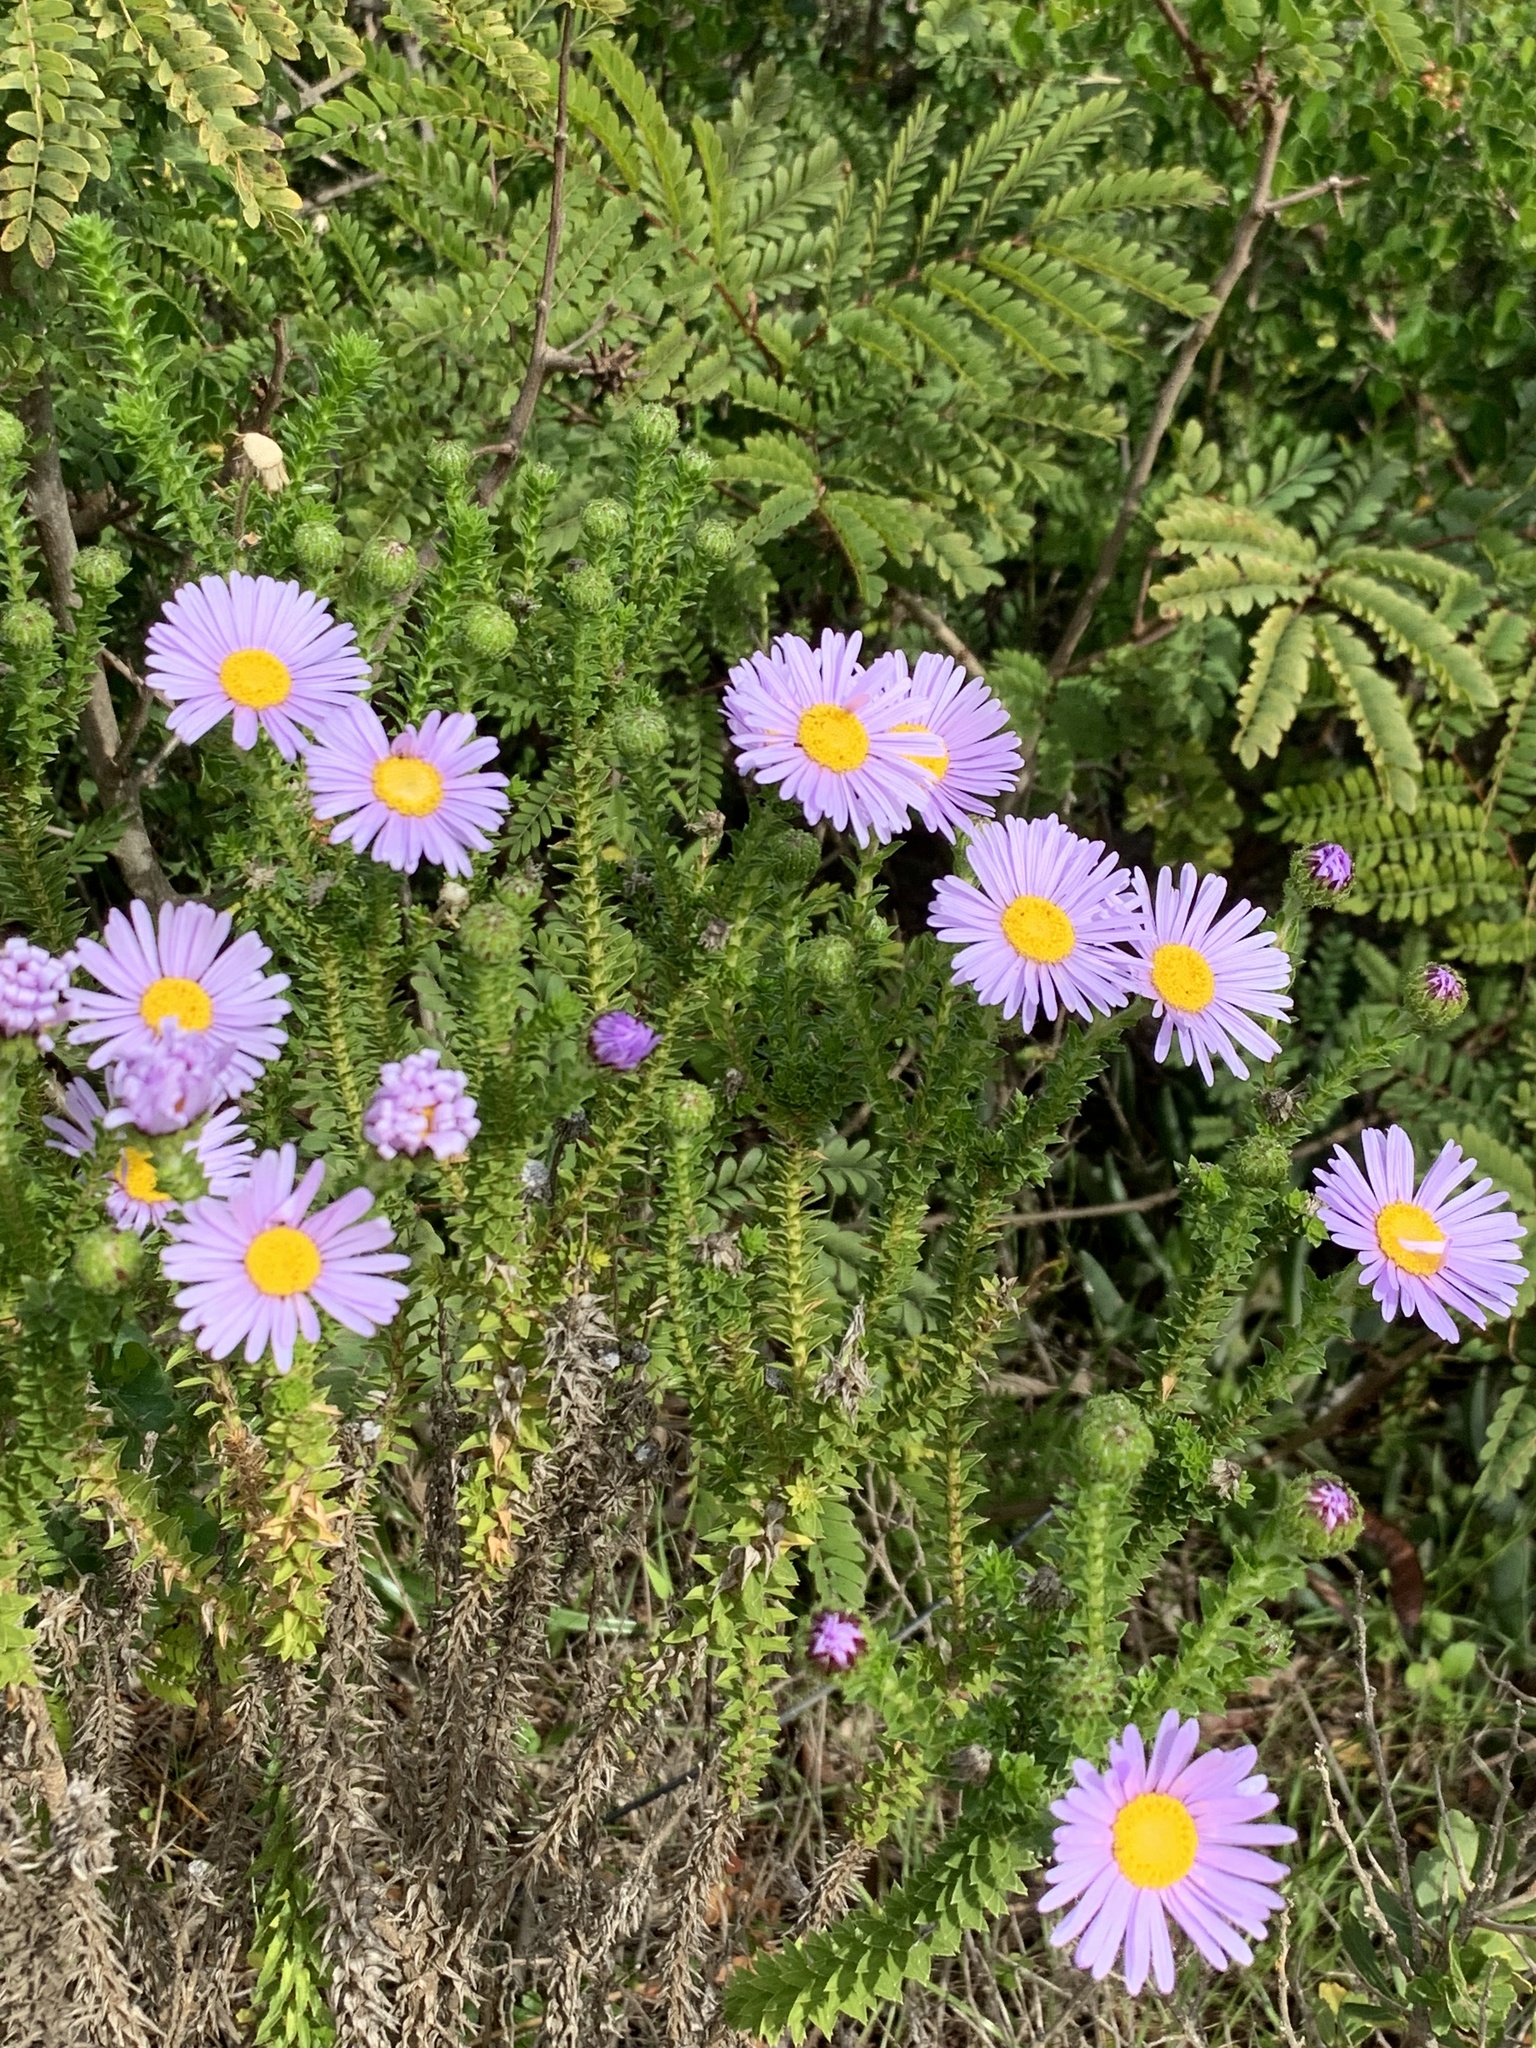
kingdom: Plantae
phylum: Tracheophyta
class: Magnoliopsida
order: Asterales
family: Asteraceae
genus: Felicia
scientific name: Felicia echinata
